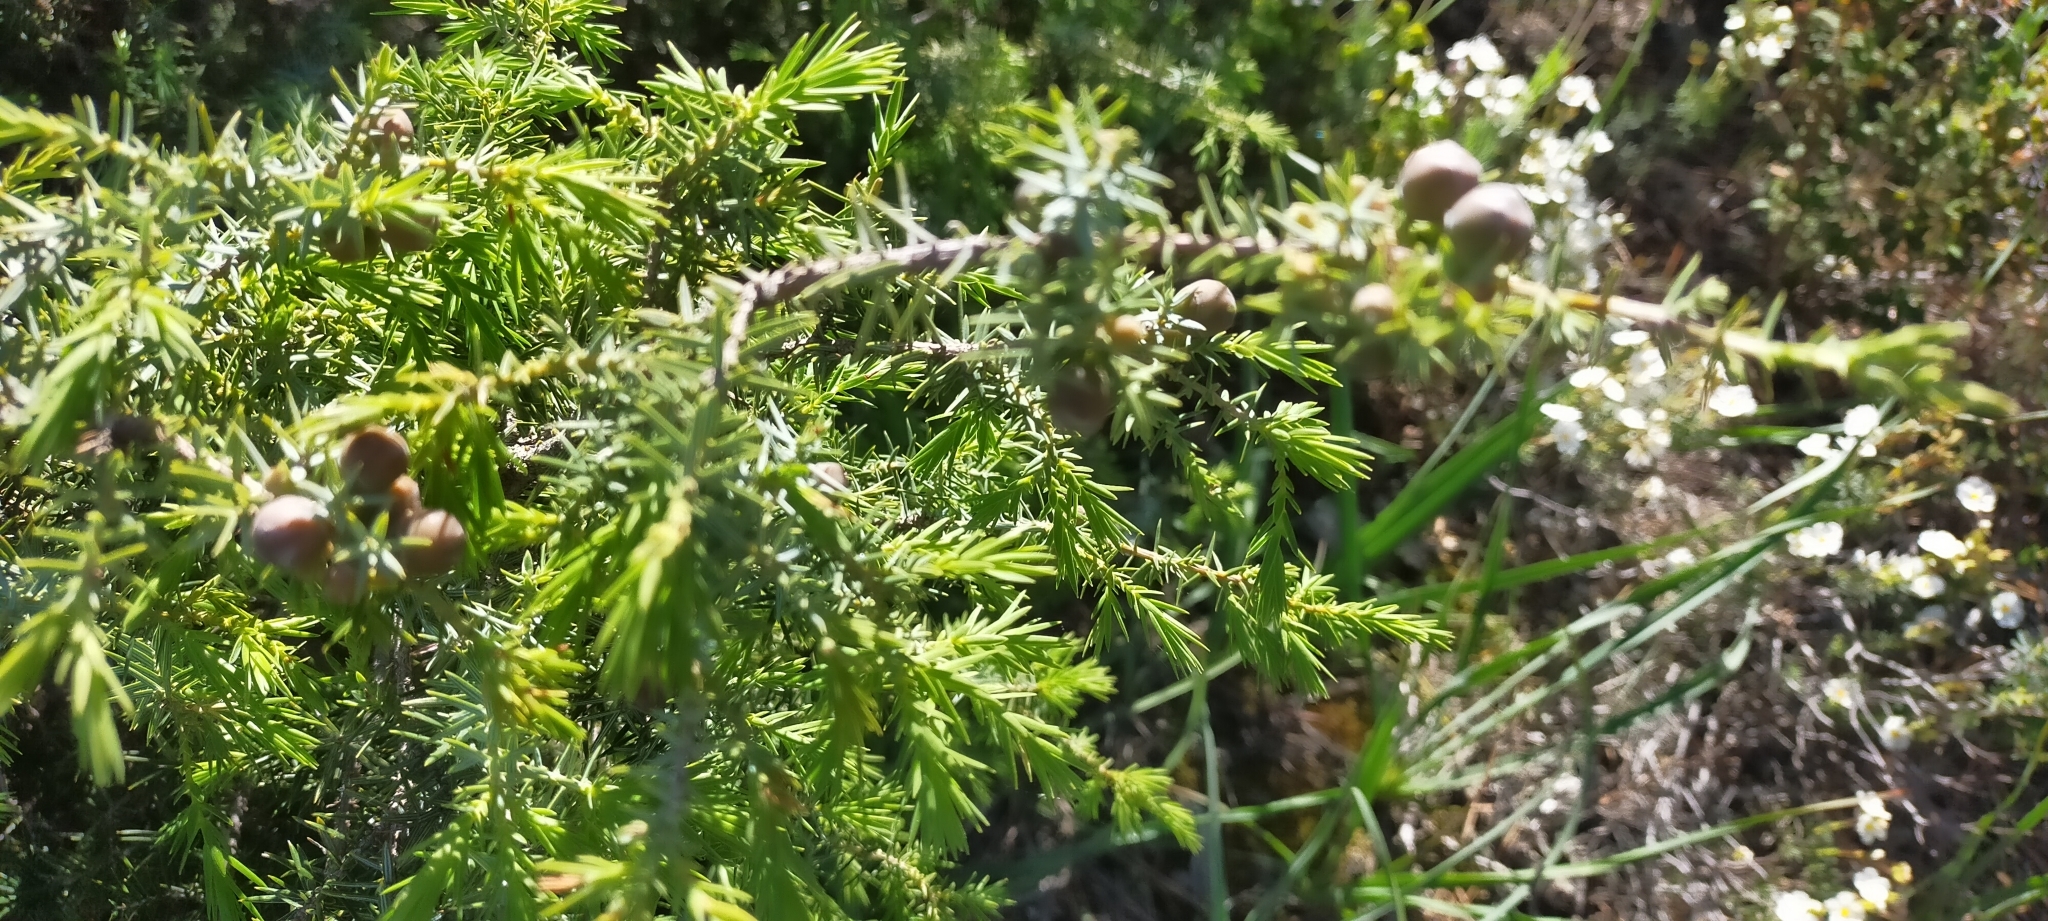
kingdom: Plantae
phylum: Tracheophyta
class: Pinopsida
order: Pinales
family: Cupressaceae
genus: Juniperus
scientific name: Juniperus oxycedrus
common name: Prickly juniper
